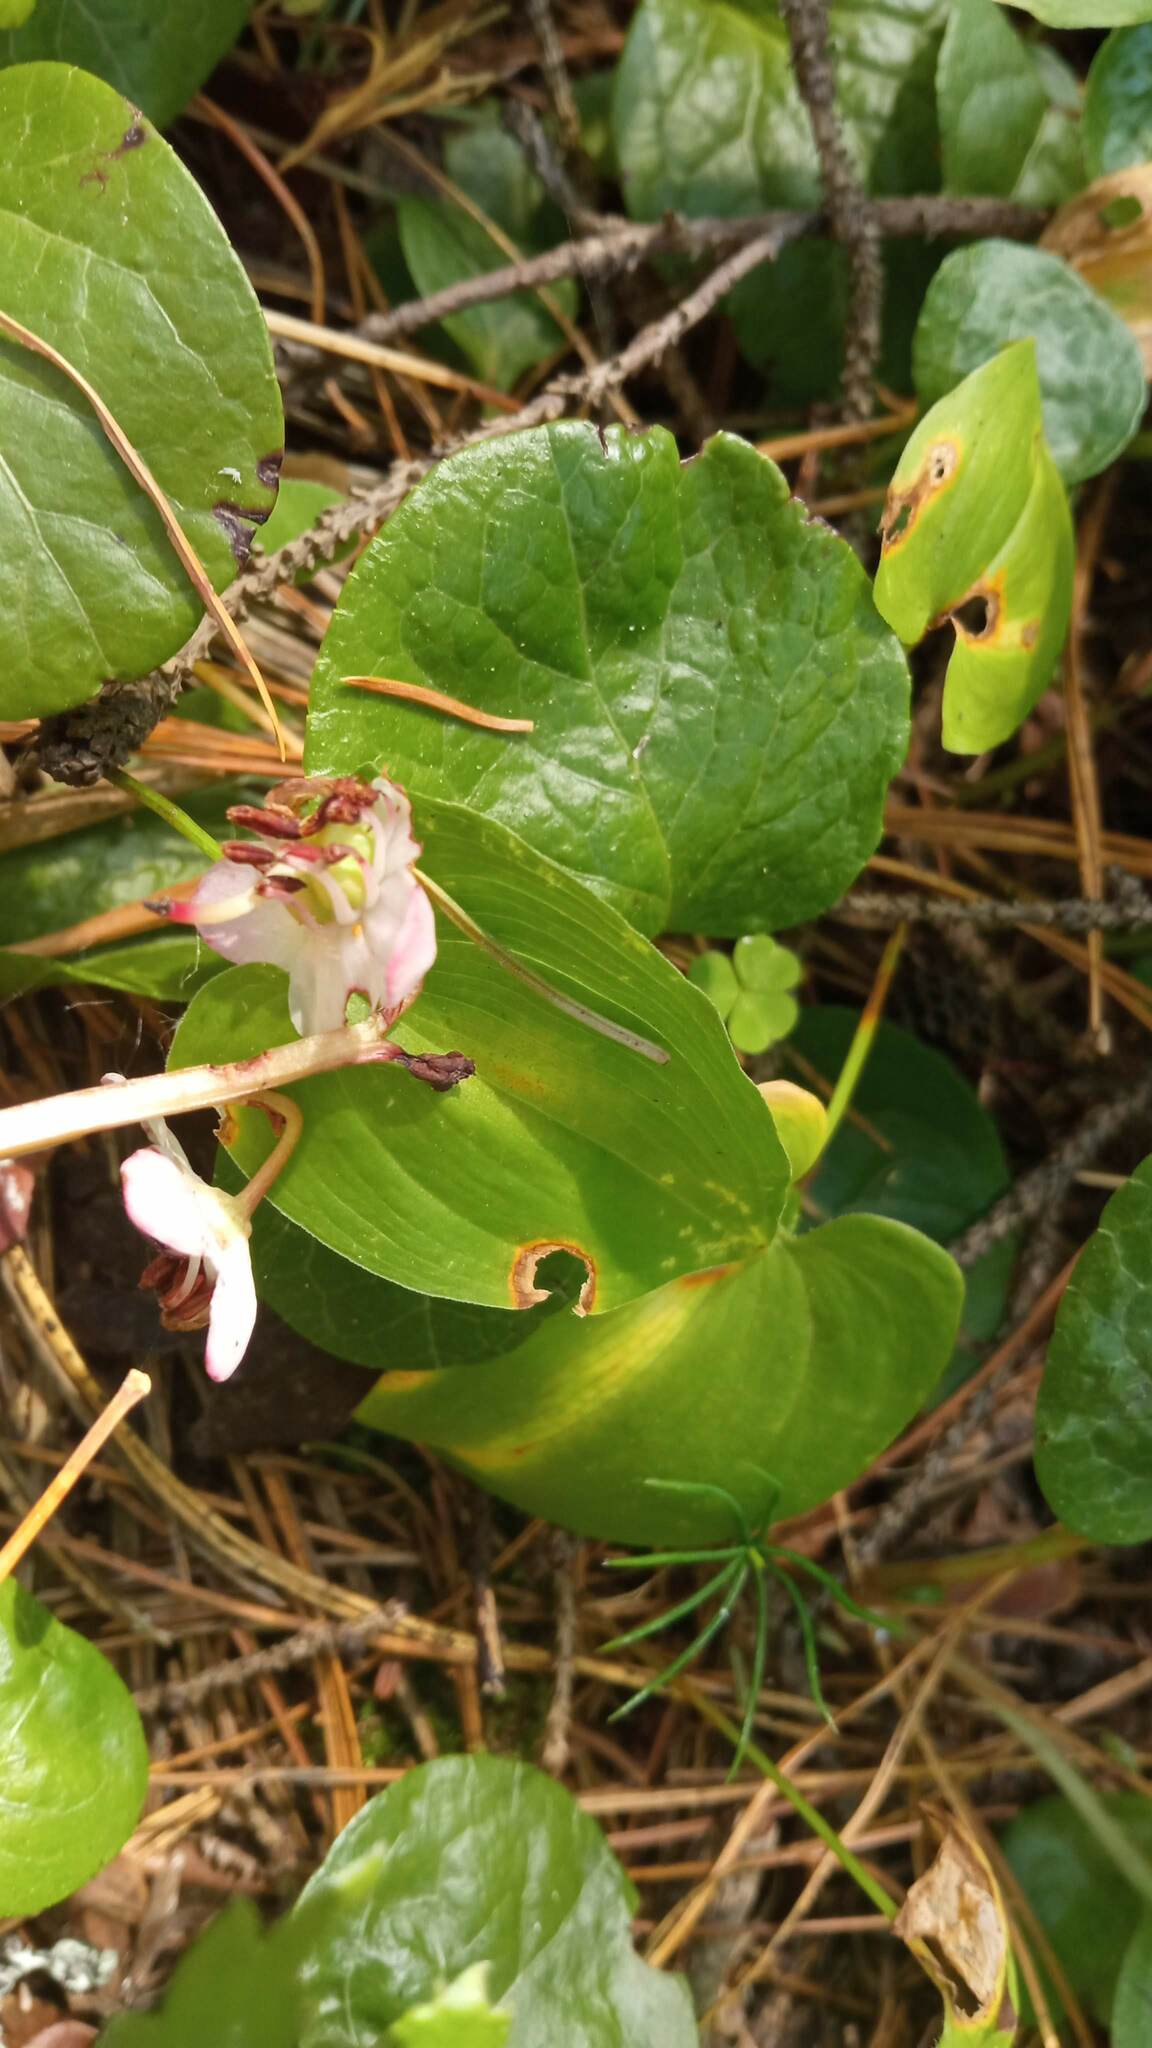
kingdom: Plantae
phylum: Tracheophyta
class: Magnoliopsida
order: Ericales
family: Ericaceae
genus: Pyrola
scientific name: Pyrola asarifolia
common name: Bog wintergreen
